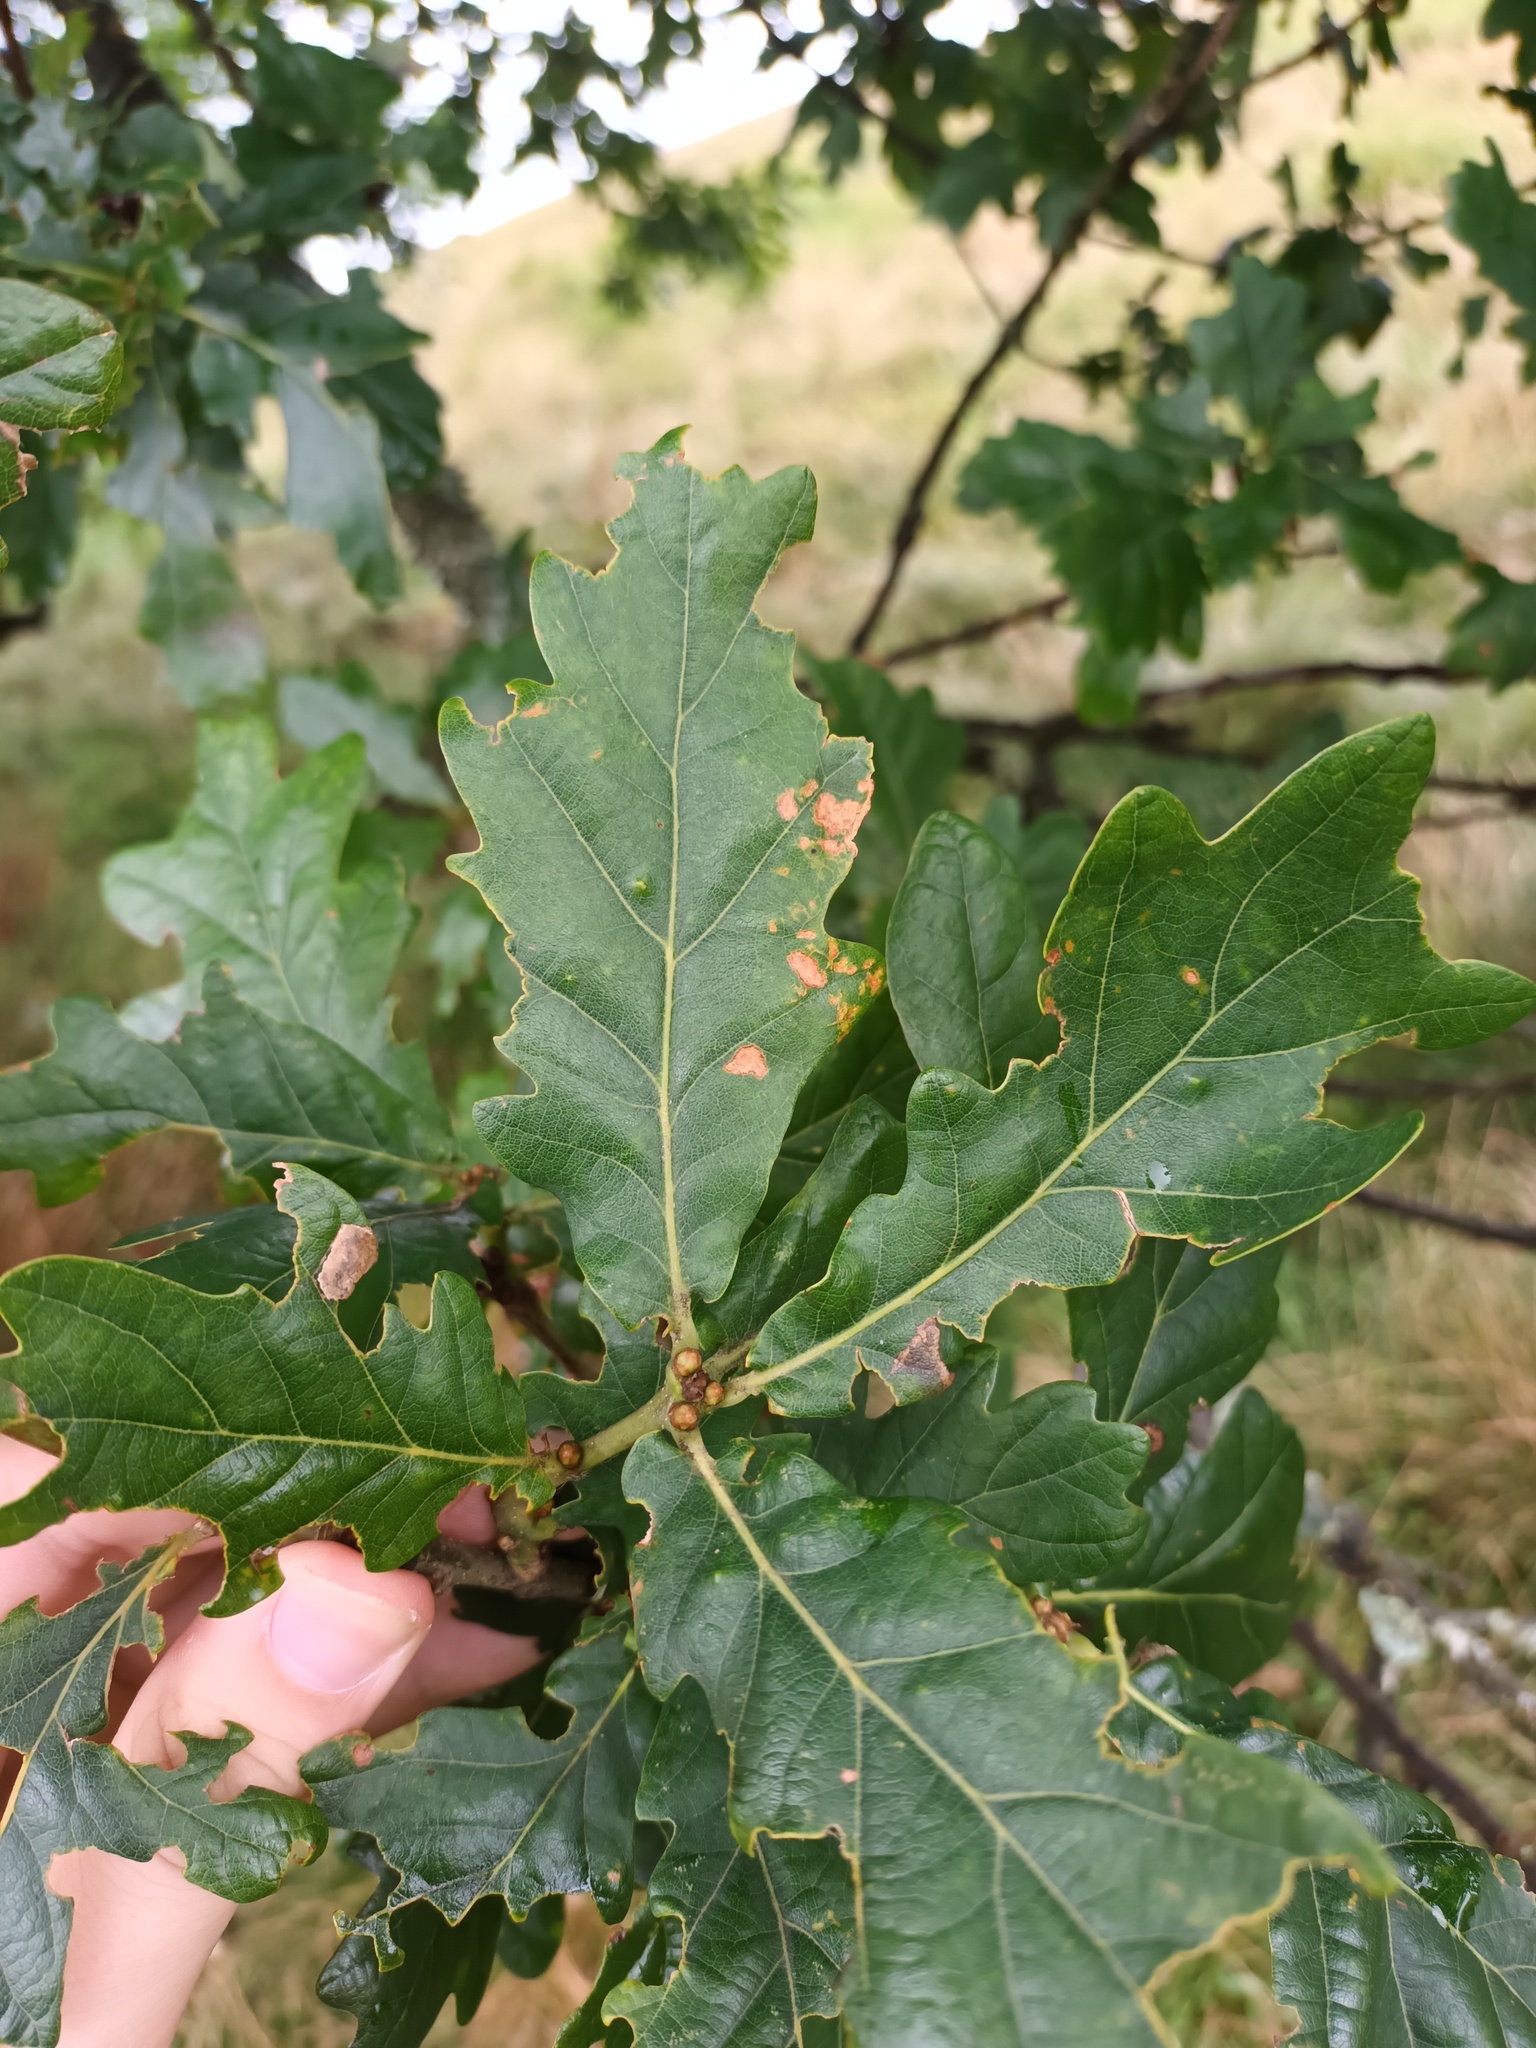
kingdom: Plantae
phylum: Tracheophyta
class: Magnoliopsida
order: Fagales
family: Fagaceae
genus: Quercus
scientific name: Quercus robur
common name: Pedunculate oak
